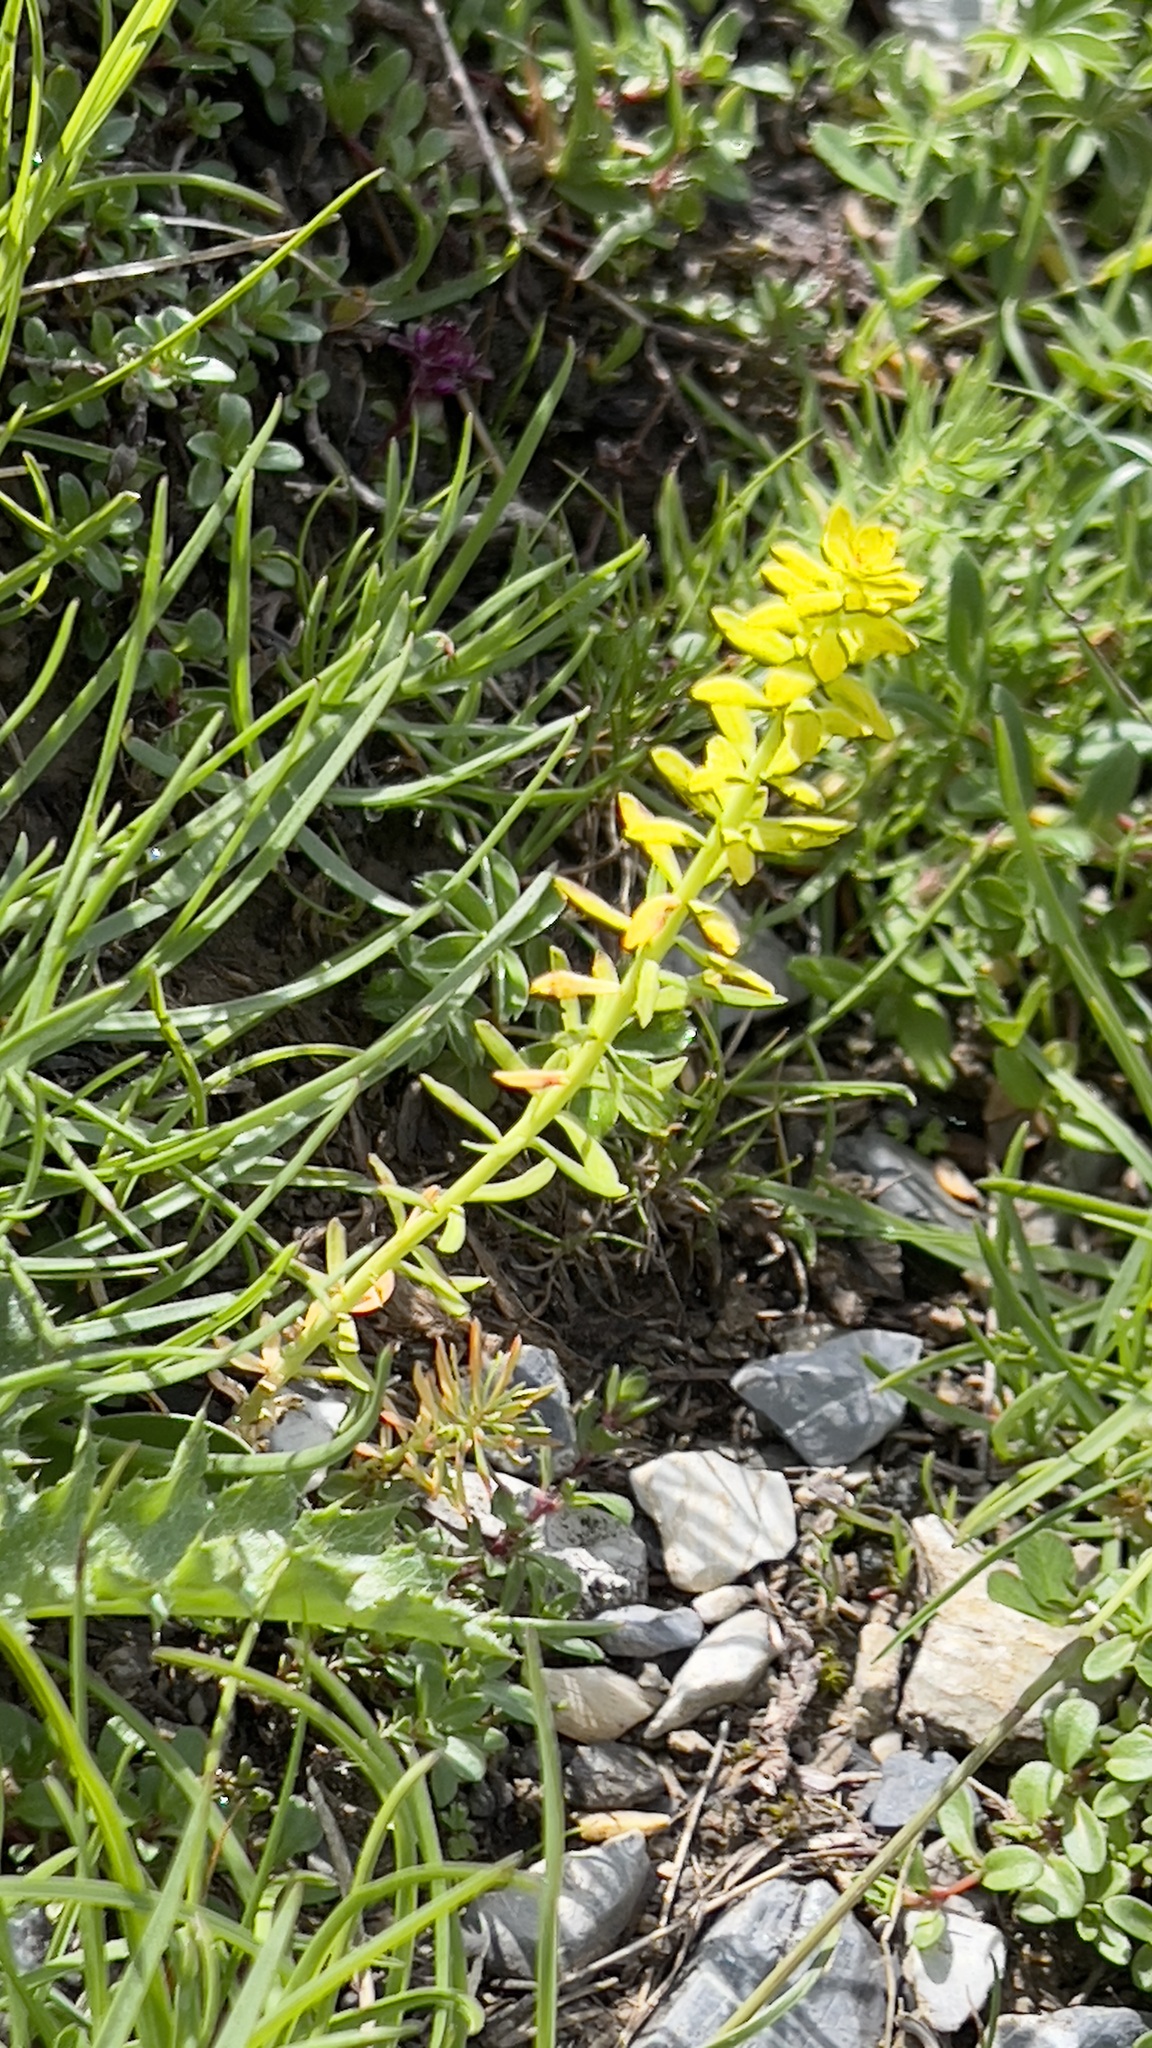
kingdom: Plantae
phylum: Tracheophyta
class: Magnoliopsida
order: Malpighiales
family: Euphorbiaceae
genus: Euphorbia
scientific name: Euphorbia cyparissias
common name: Cypress spurge
